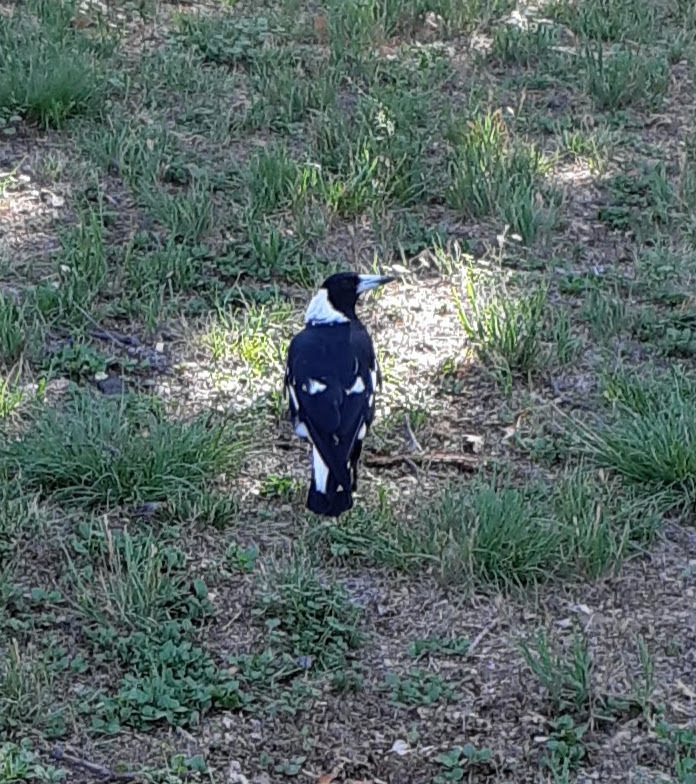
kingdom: Animalia
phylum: Chordata
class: Aves
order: Passeriformes
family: Cracticidae
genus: Gymnorhina
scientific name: Gymnorhina tibicen
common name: Australian magpie
